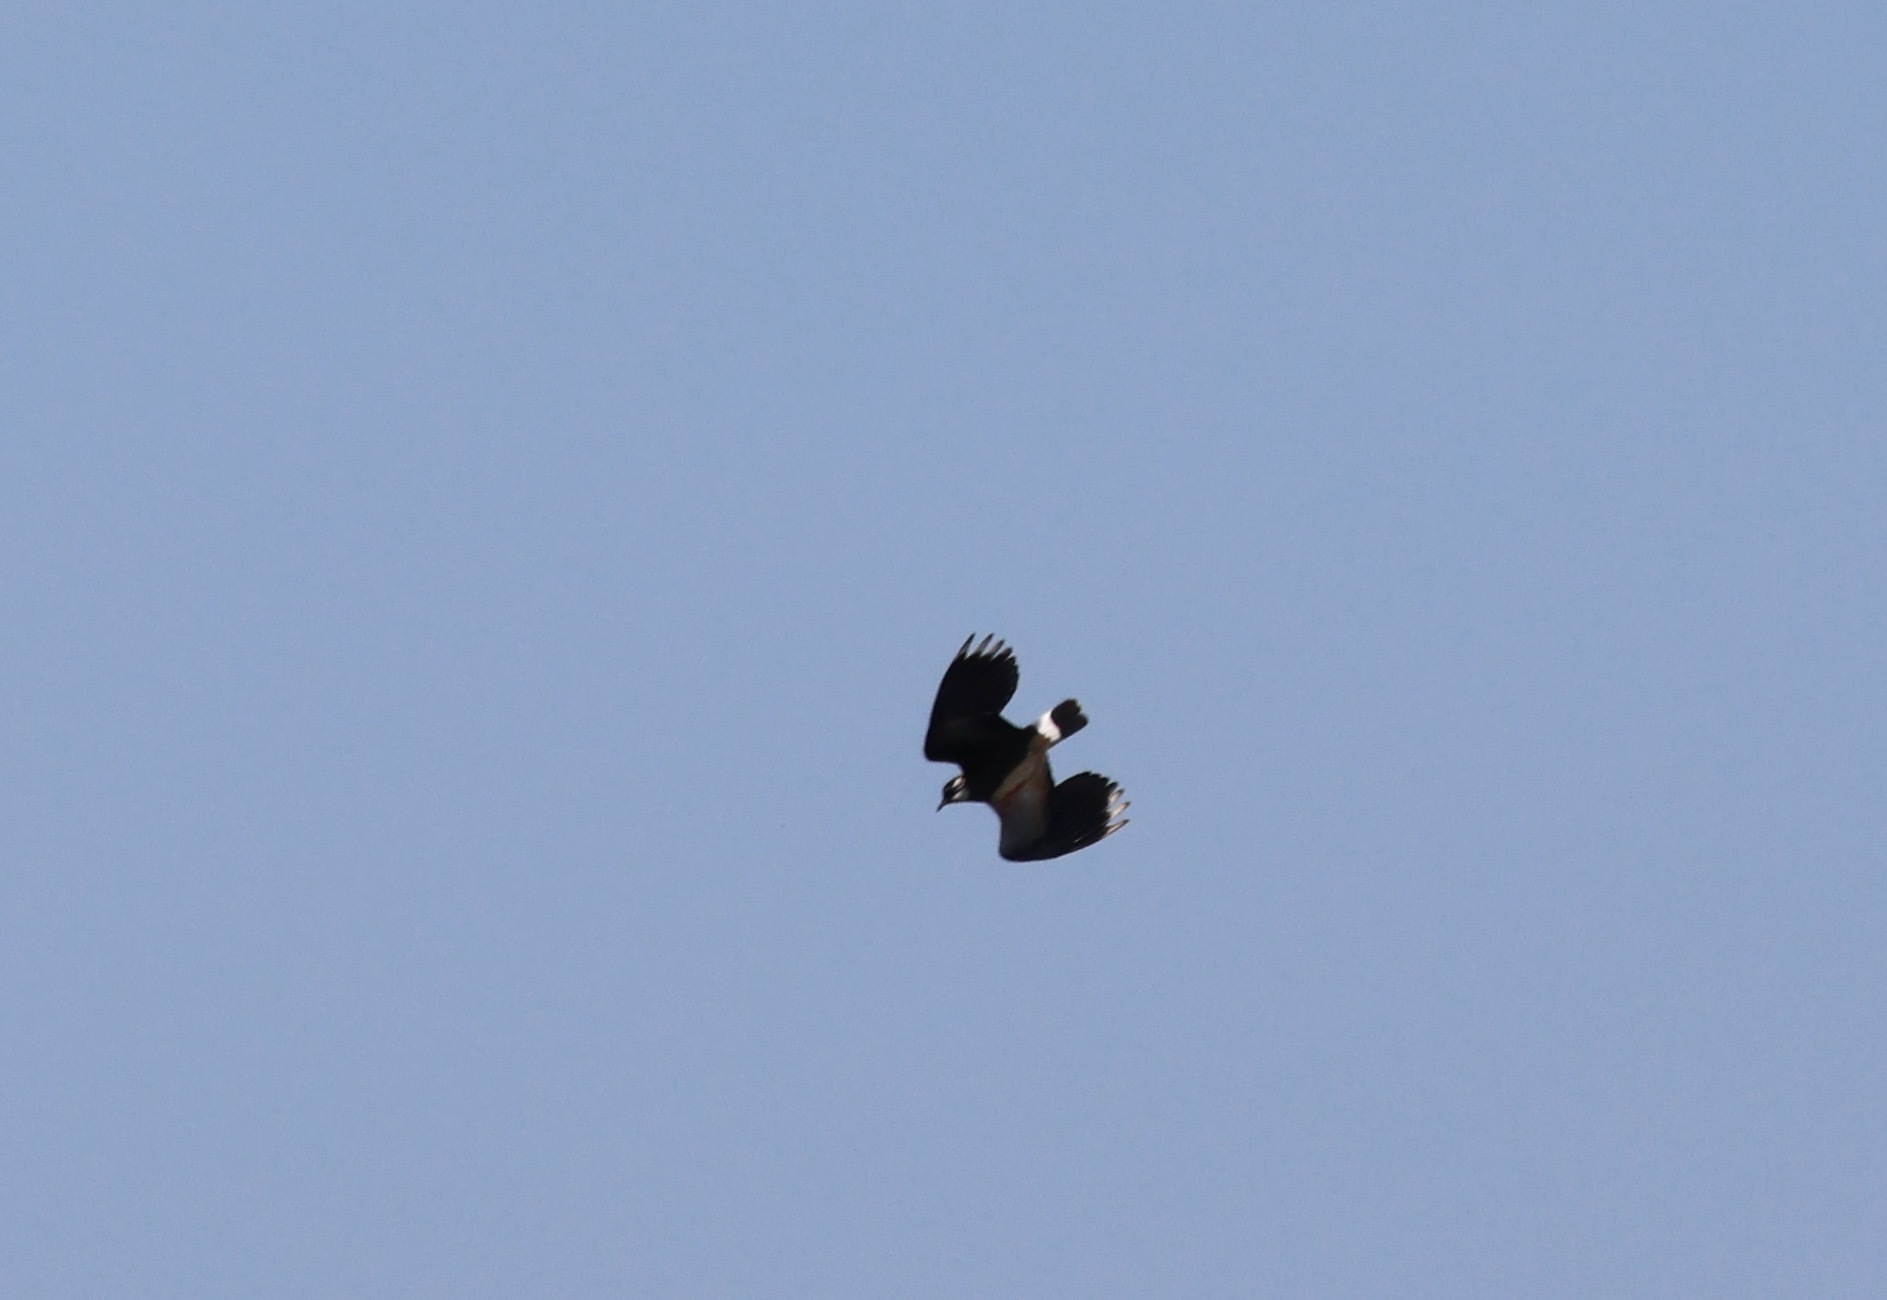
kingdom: Animalia
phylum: Chordata
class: Aves
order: Charadriiformes
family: Charadriidae
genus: Vanellus
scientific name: Vanellus vanellus
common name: Northern lapwing
